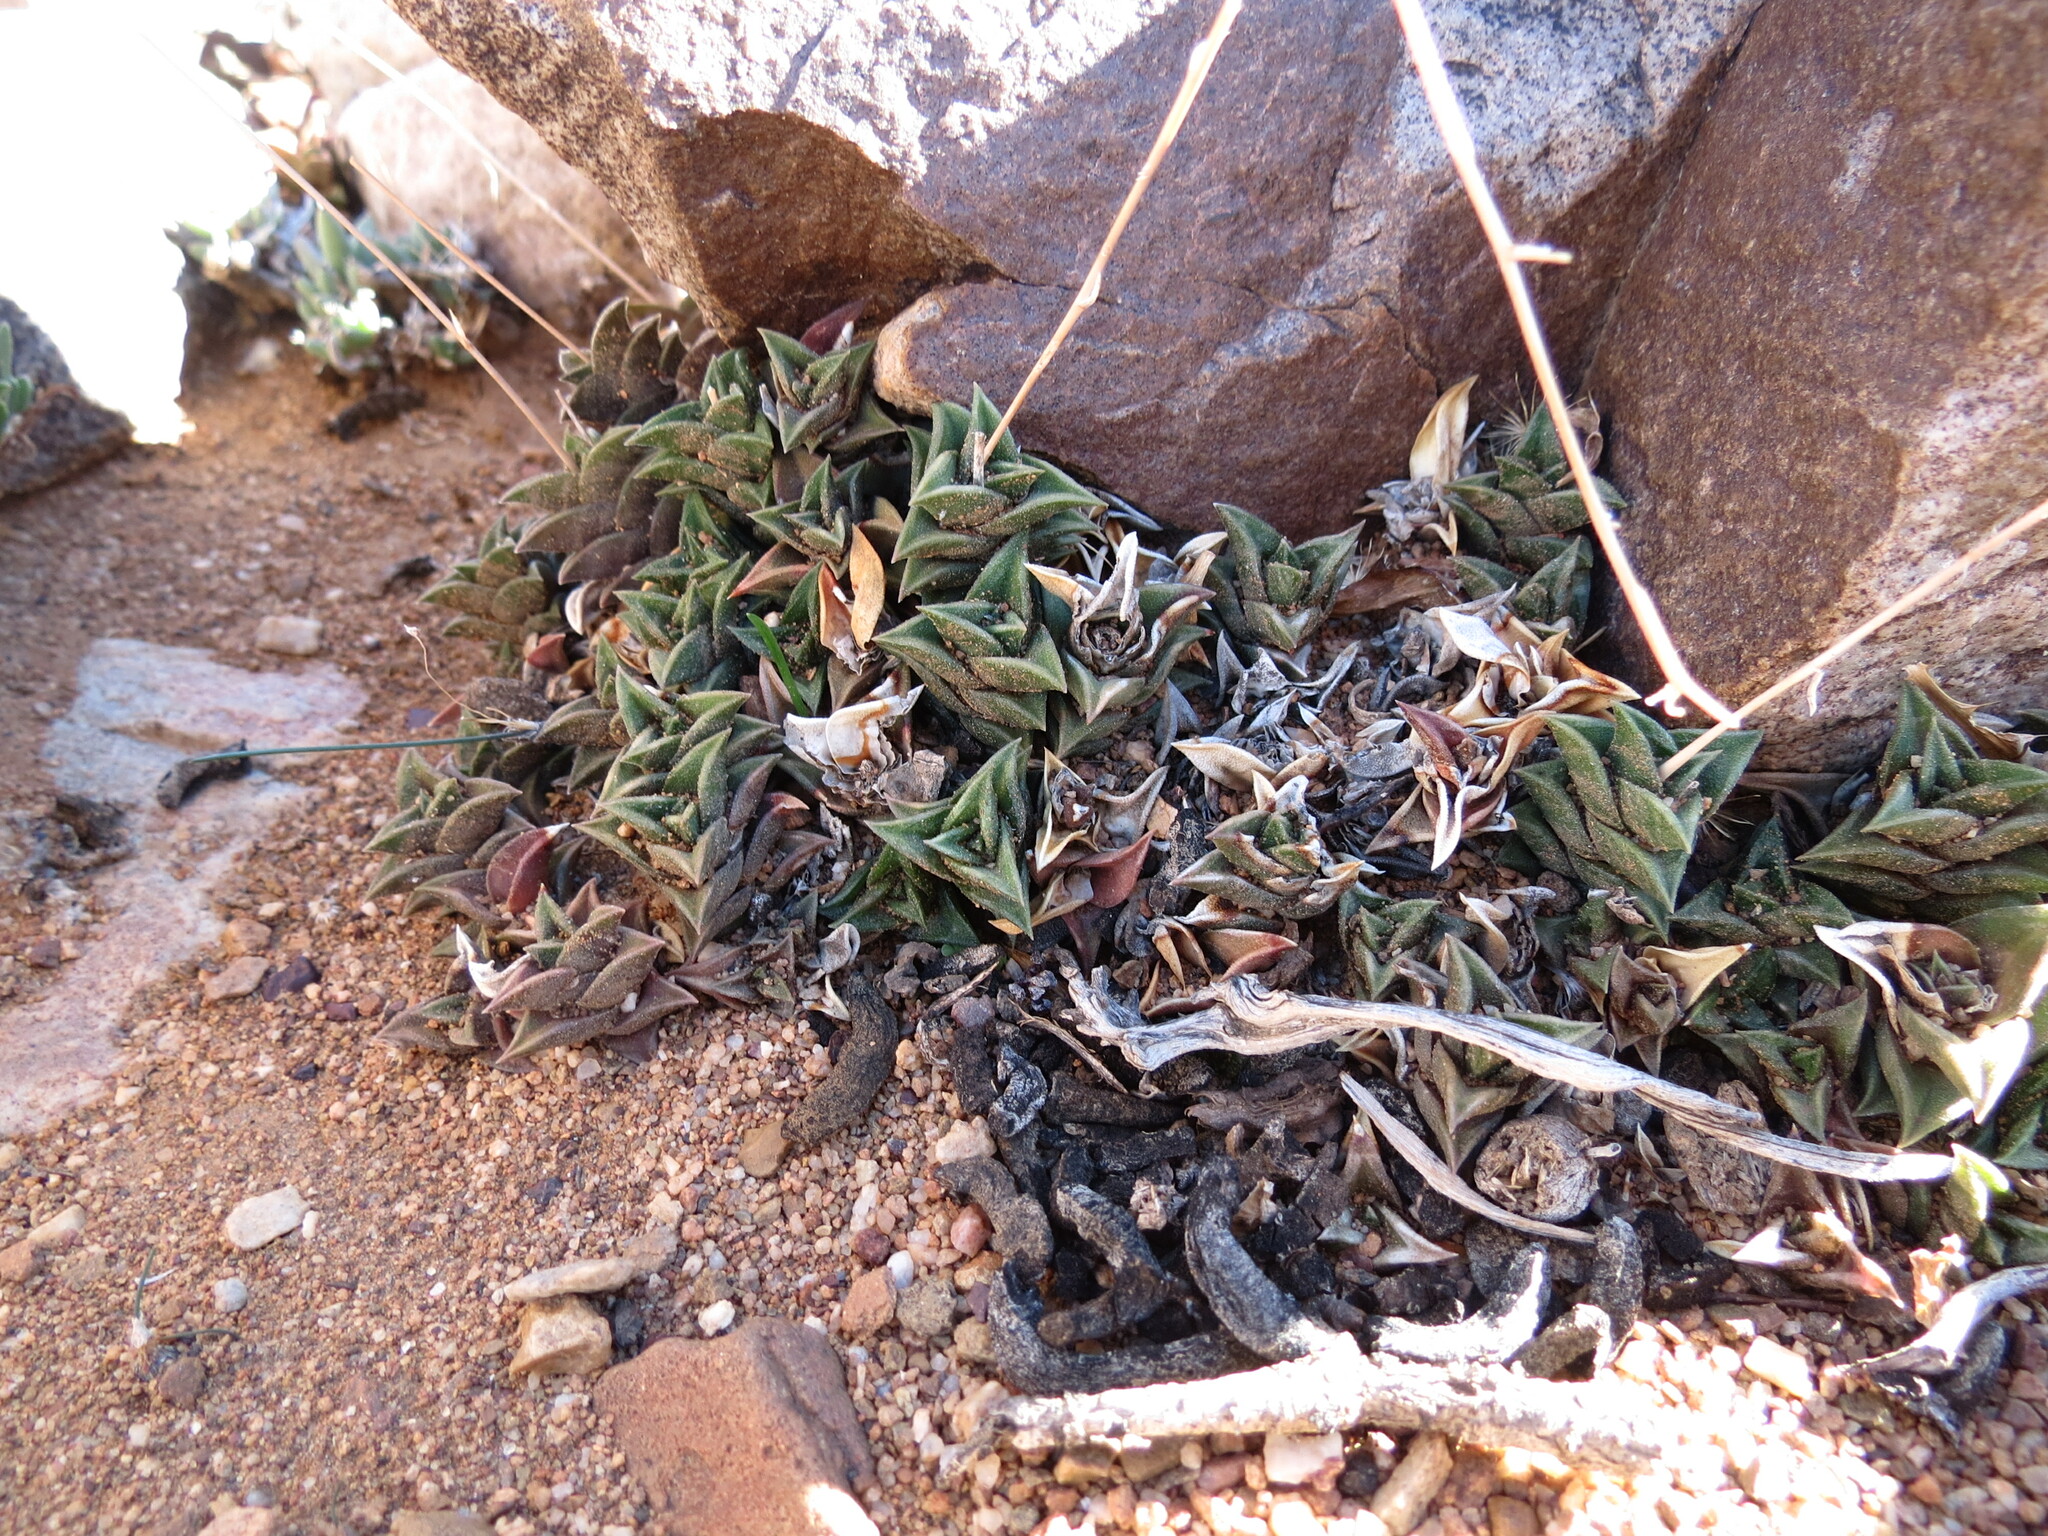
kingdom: Plantae
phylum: Tracheophyta
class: Liliopsida
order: Asparagales
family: Asphodelaceae
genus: Haworthiopsis
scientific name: Haworthiopsis viscosa
